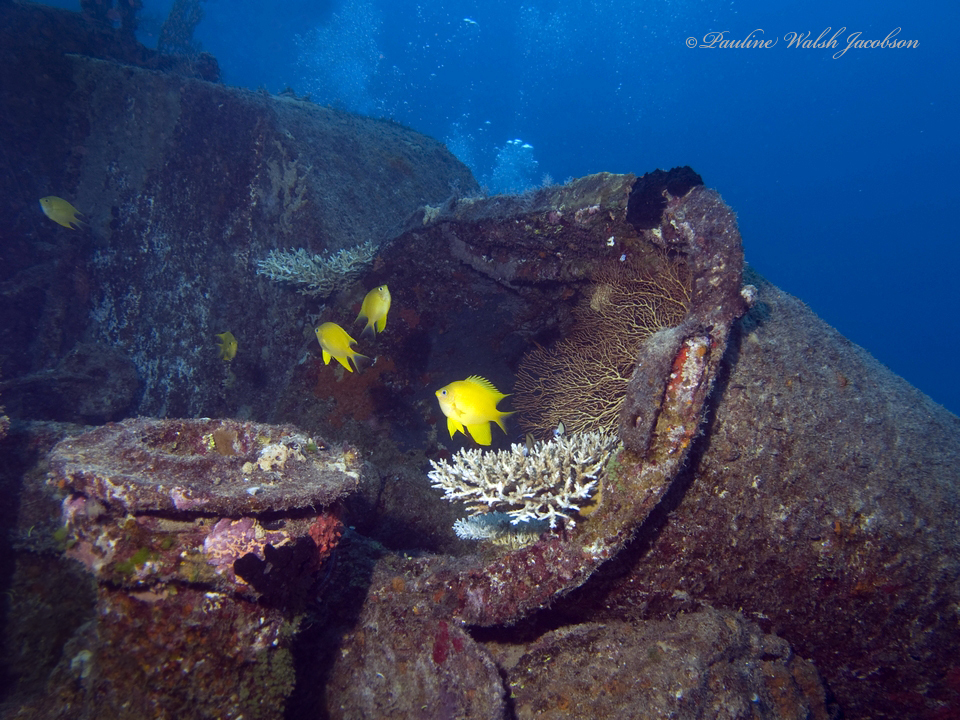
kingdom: Animalia
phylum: Chordata
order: Perciformes
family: Pomacentridae
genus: Amblyglyphidodon
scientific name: Amblyglyphidodon aureus
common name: Golden damsel
